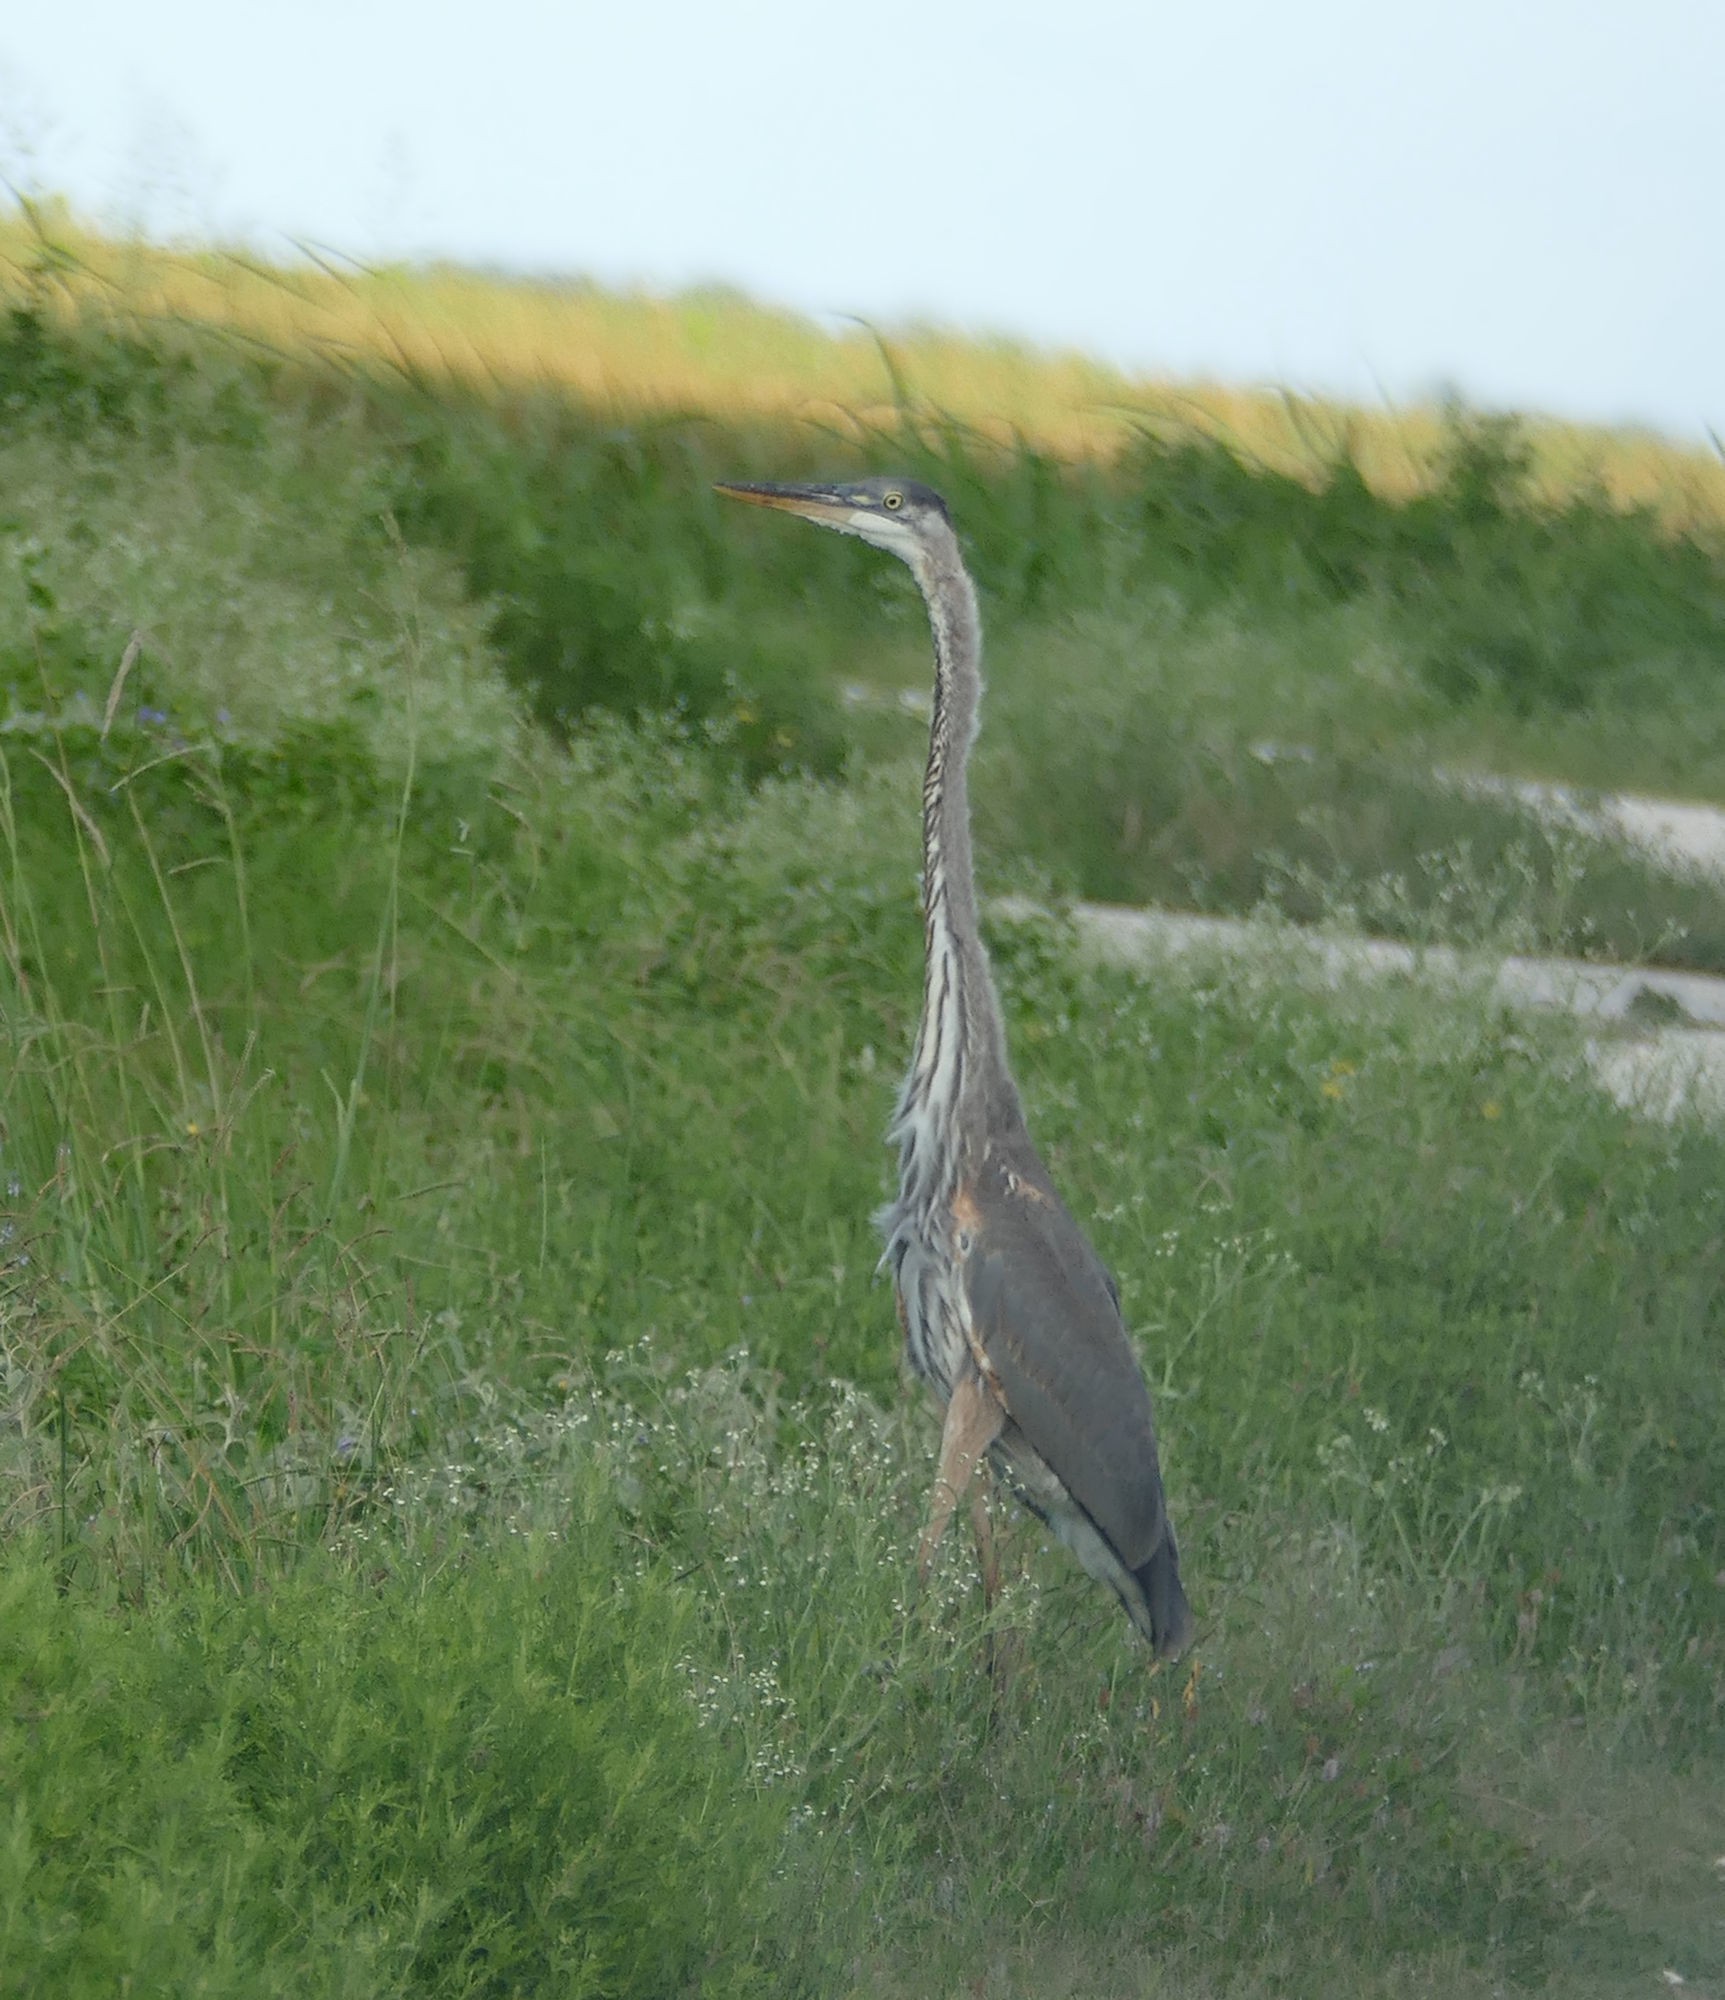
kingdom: Animalia
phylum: Chordata
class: Aves
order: Pelecaniformes
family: Ardeidae
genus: Ardea
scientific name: Ardea herodias
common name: Great blue heron
